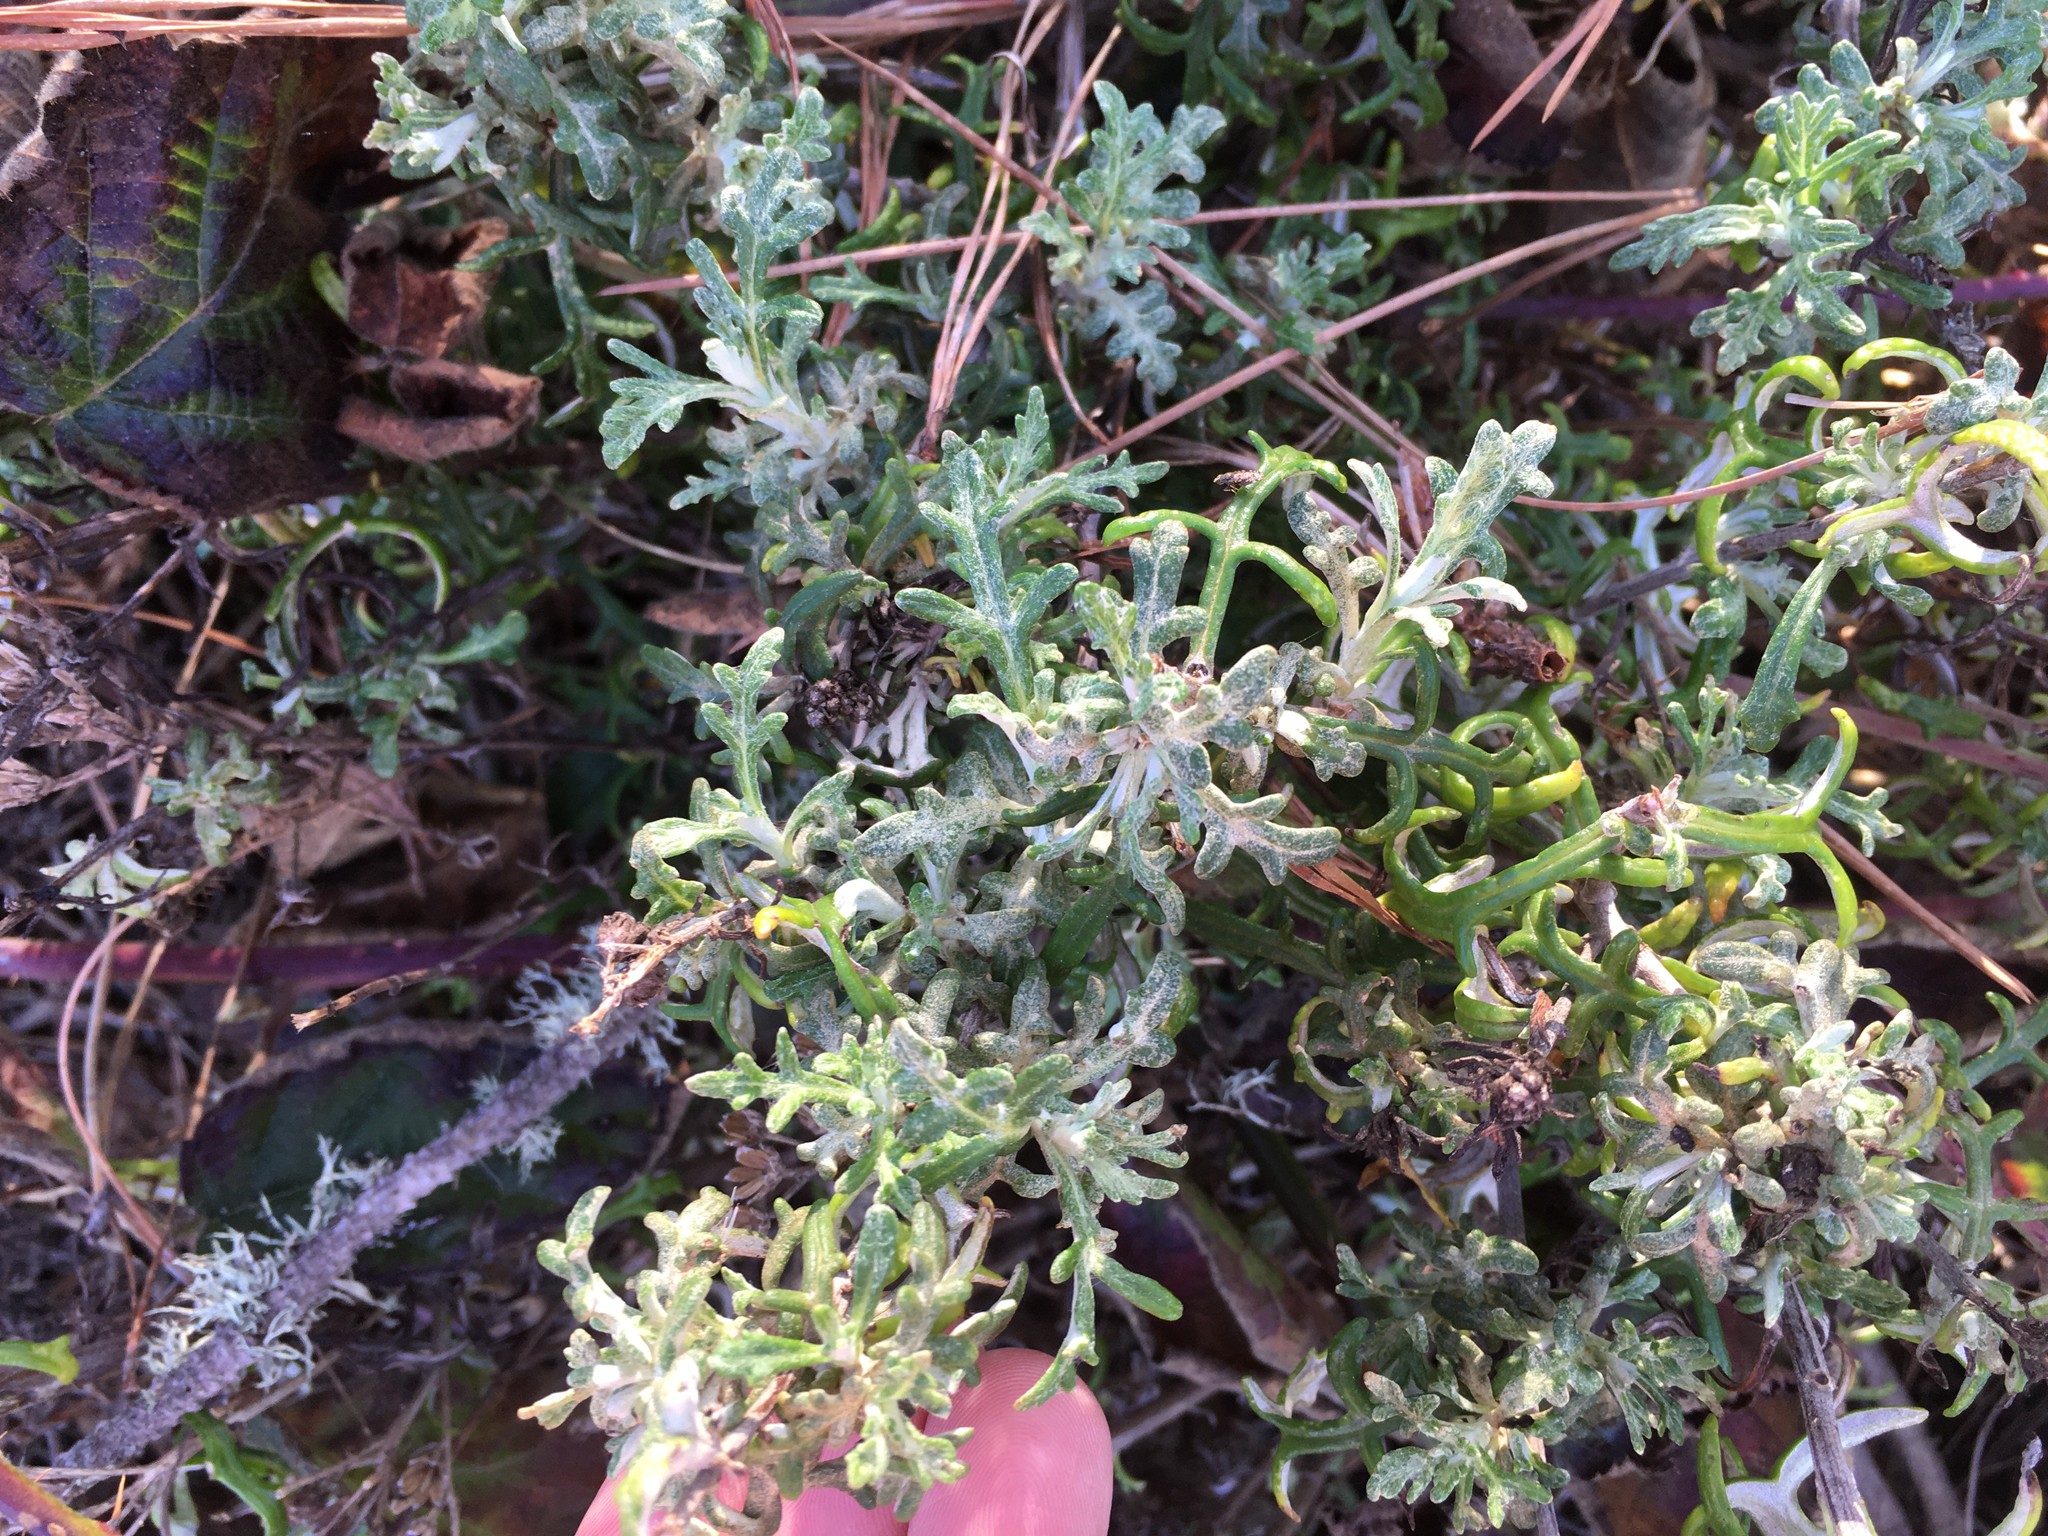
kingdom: Plantae
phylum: Tracheophyta
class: Magnoliopsida
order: Asterales
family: Asteraceae
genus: Eriophyllum
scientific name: Eriophyllum staechadifolium
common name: Lizardtail
